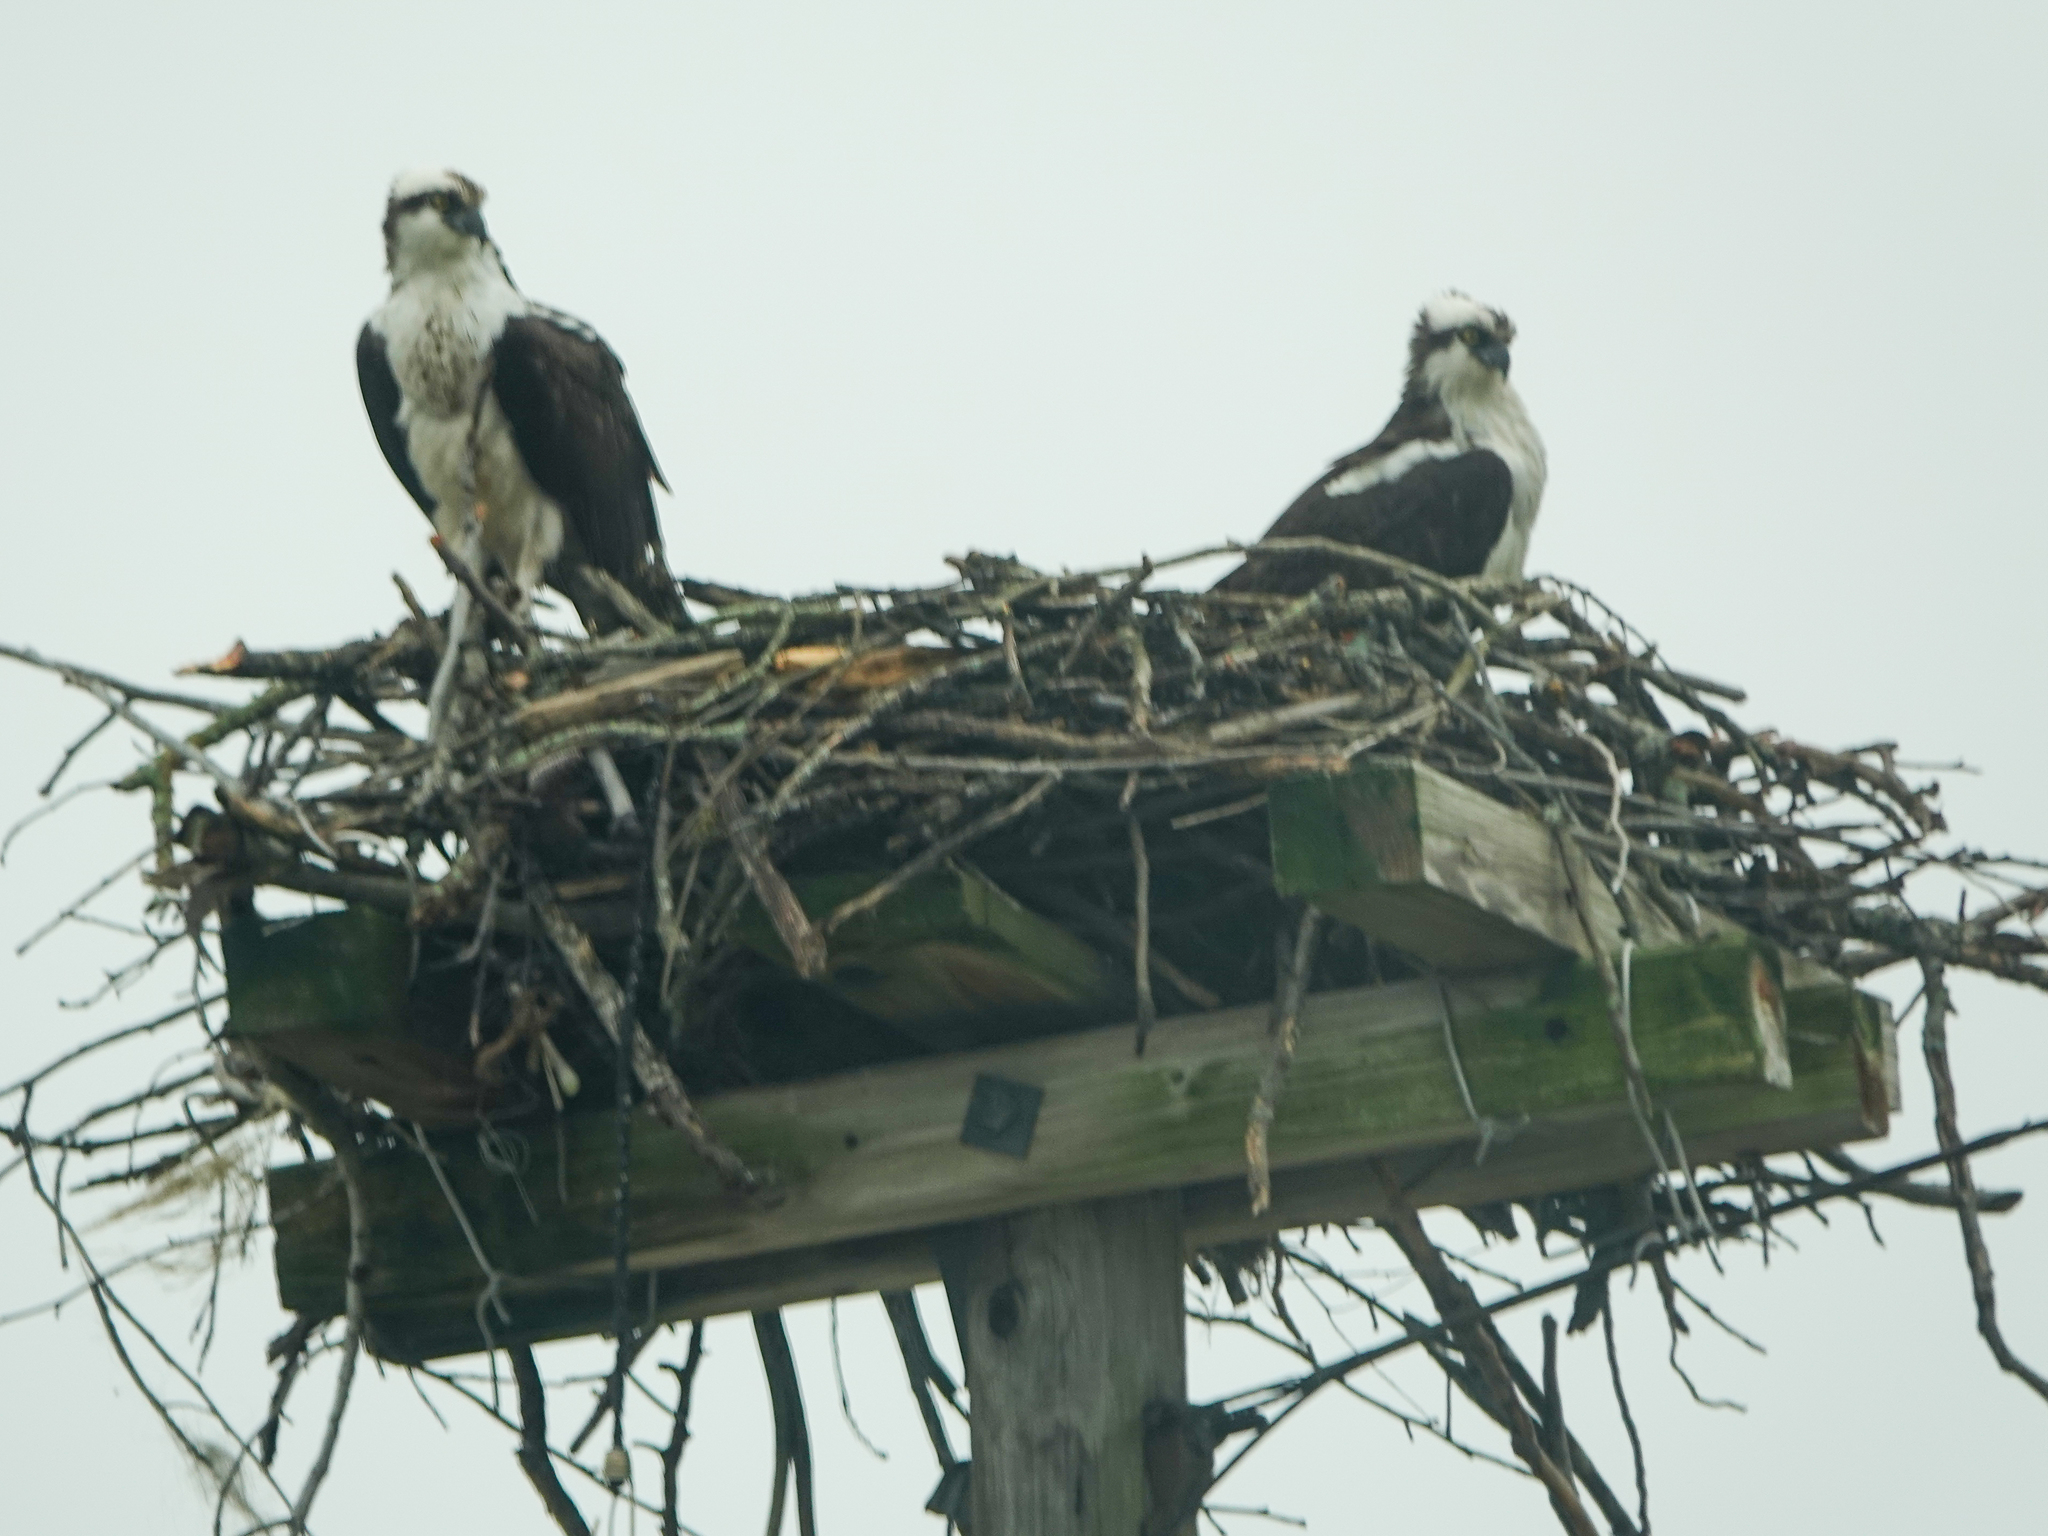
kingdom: Animalia
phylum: Chordata
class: Aves
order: Accipitriformes
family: Pandionidae
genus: Pandion
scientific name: Pandion haliaetus
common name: Osprey
